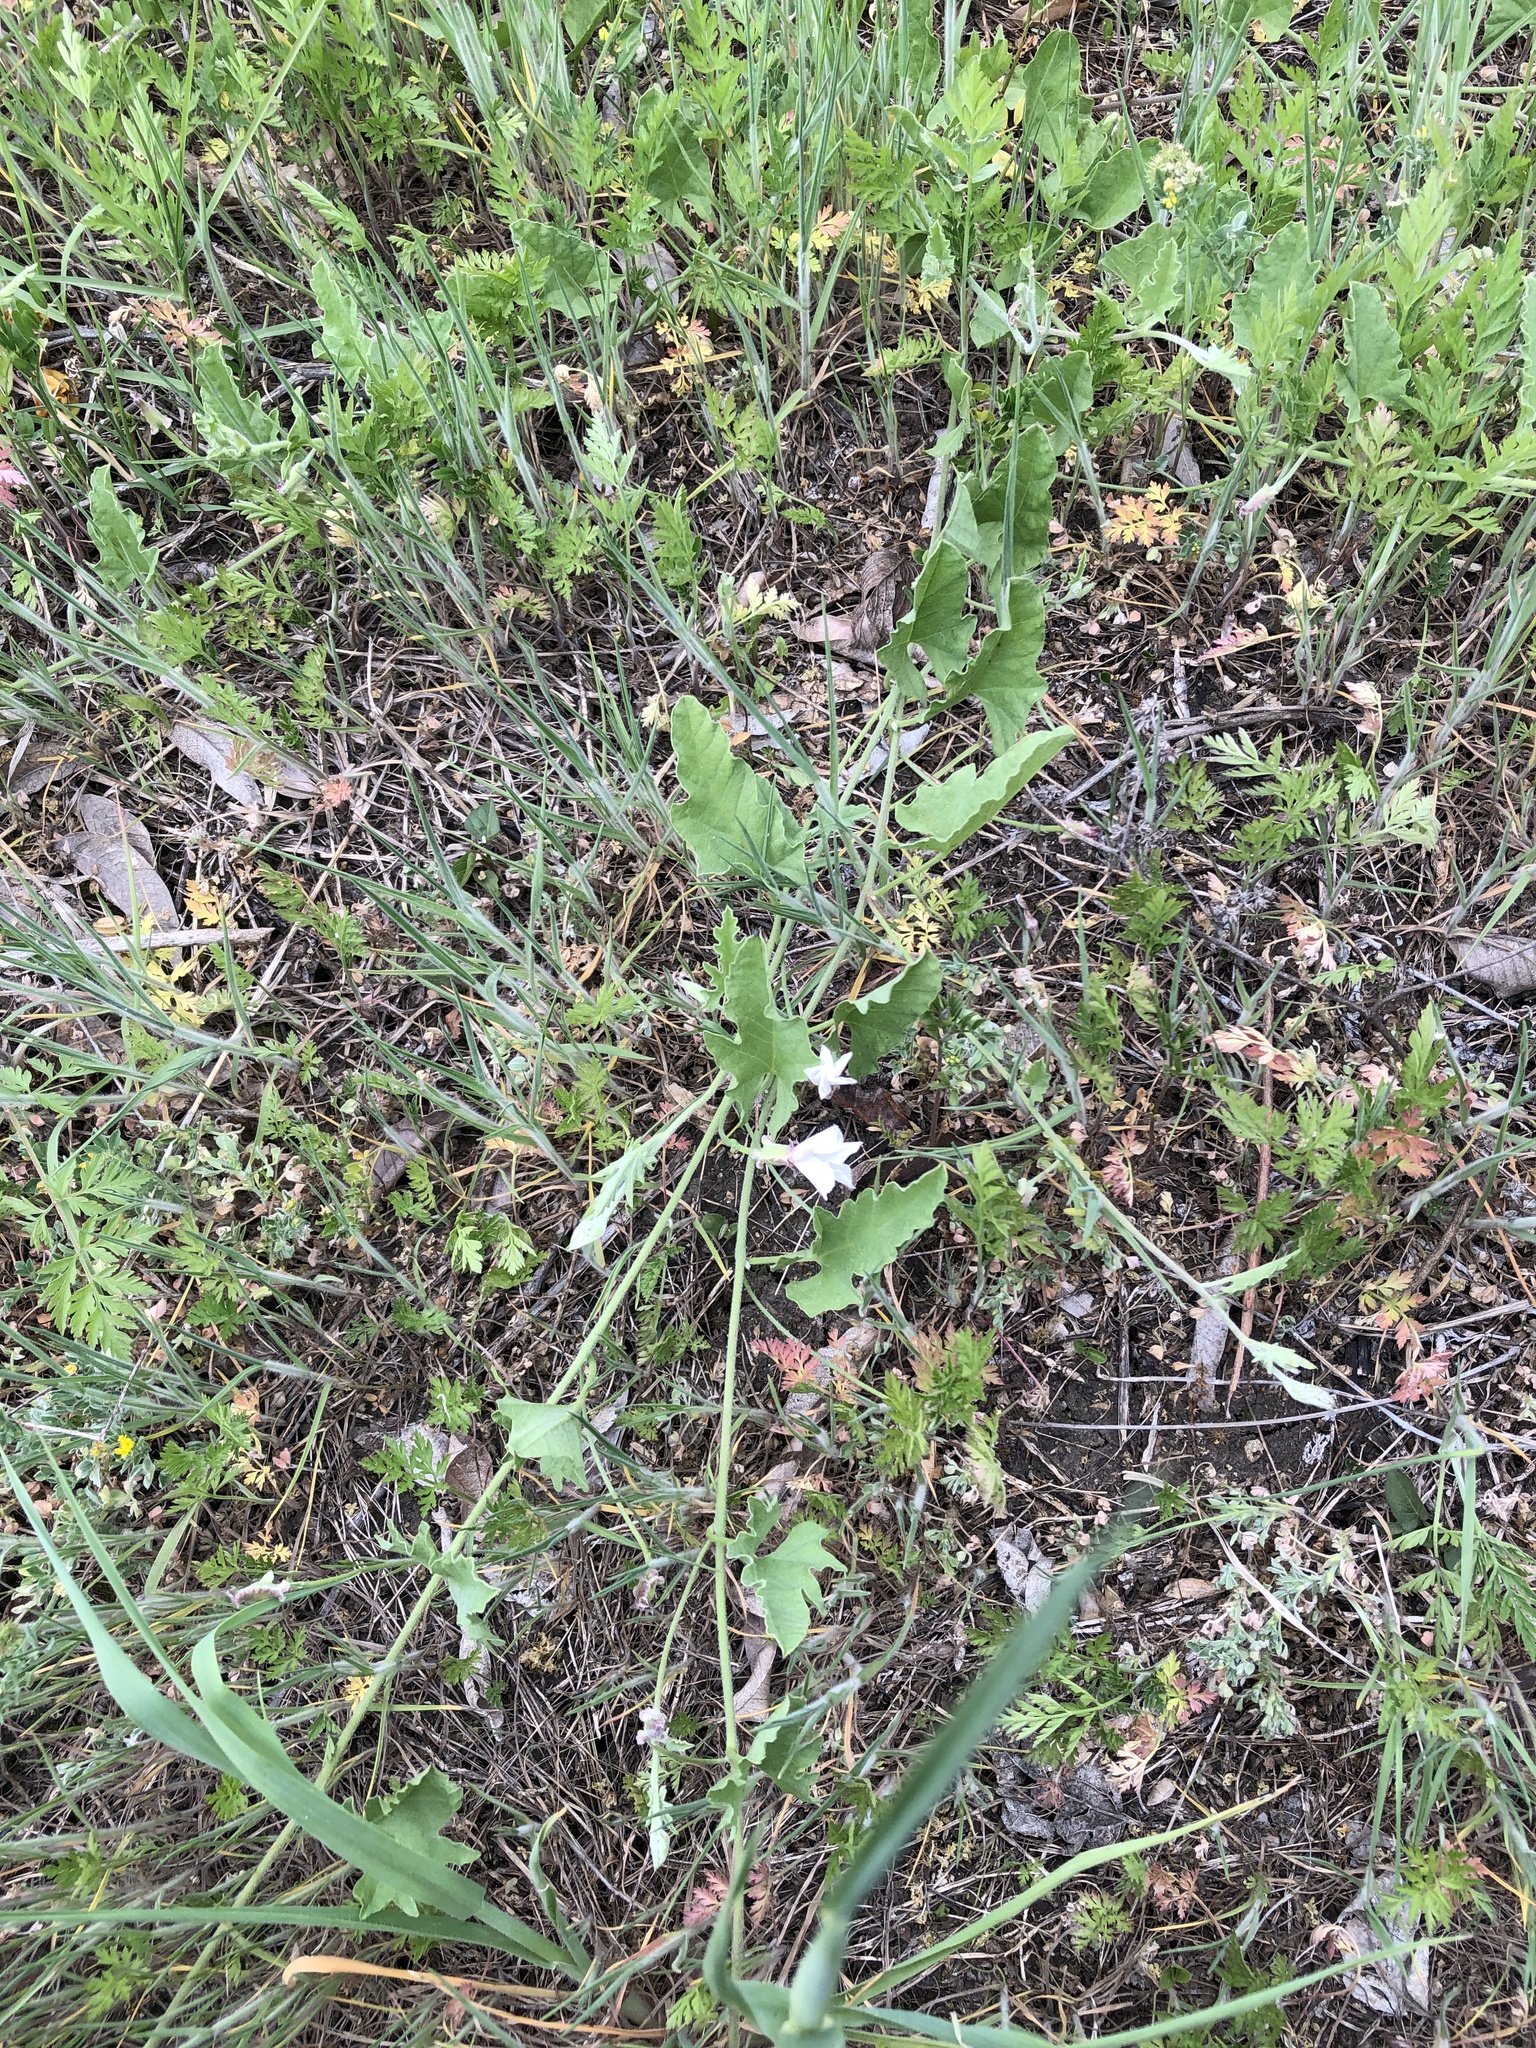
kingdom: Plantae
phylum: Tracheophyta
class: Magnoliopsida
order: Solanales
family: Convolvulaceae
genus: Convolvulus
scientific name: Convolvulus equitans
